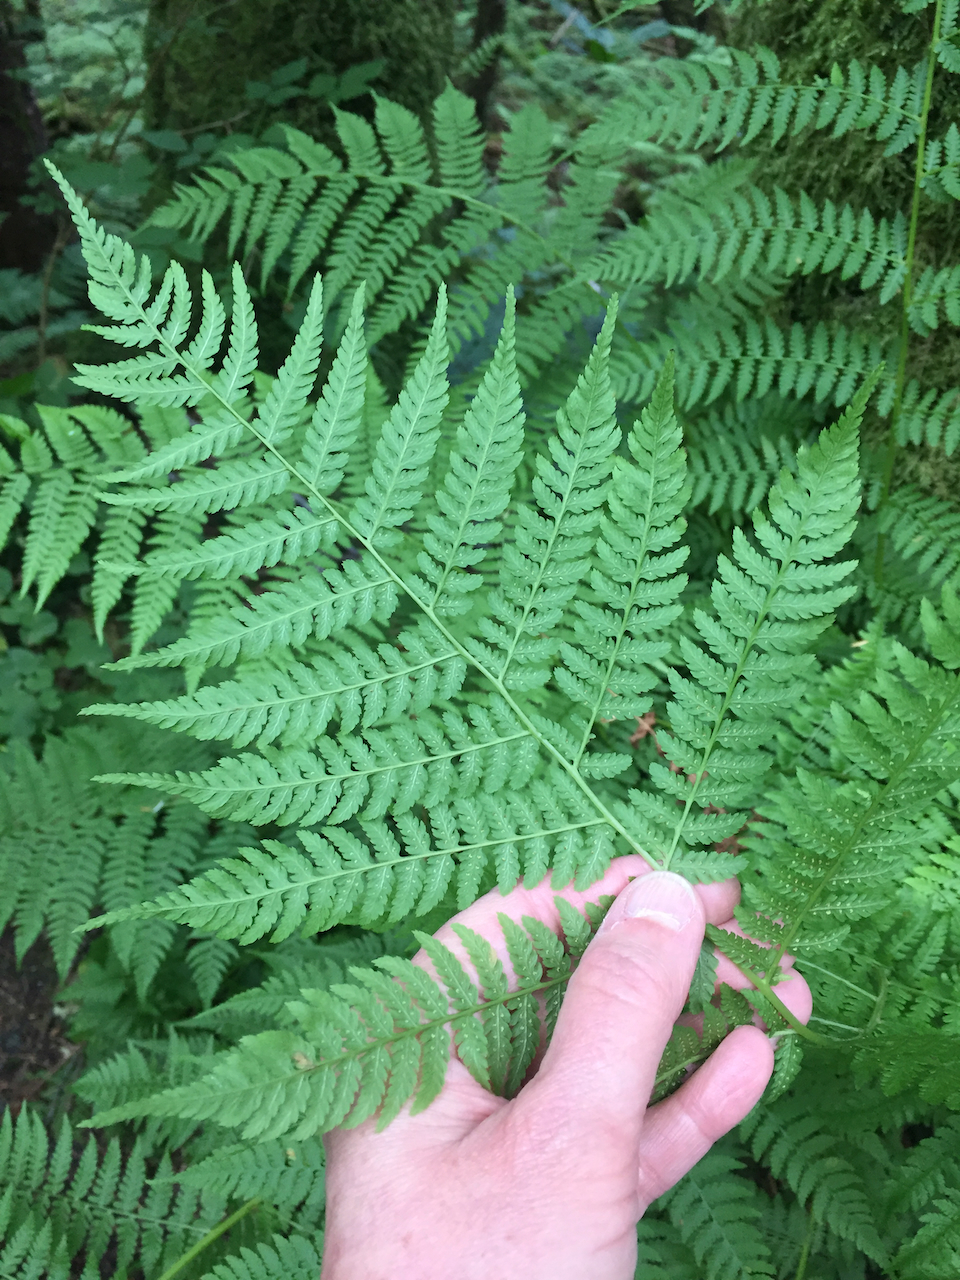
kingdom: Plantae
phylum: Tracheophyta
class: Polypodiopsida
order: Polypodiales
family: Athyriaceae
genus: Athyrium
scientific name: Athyrium filix-femina
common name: Lady fern
